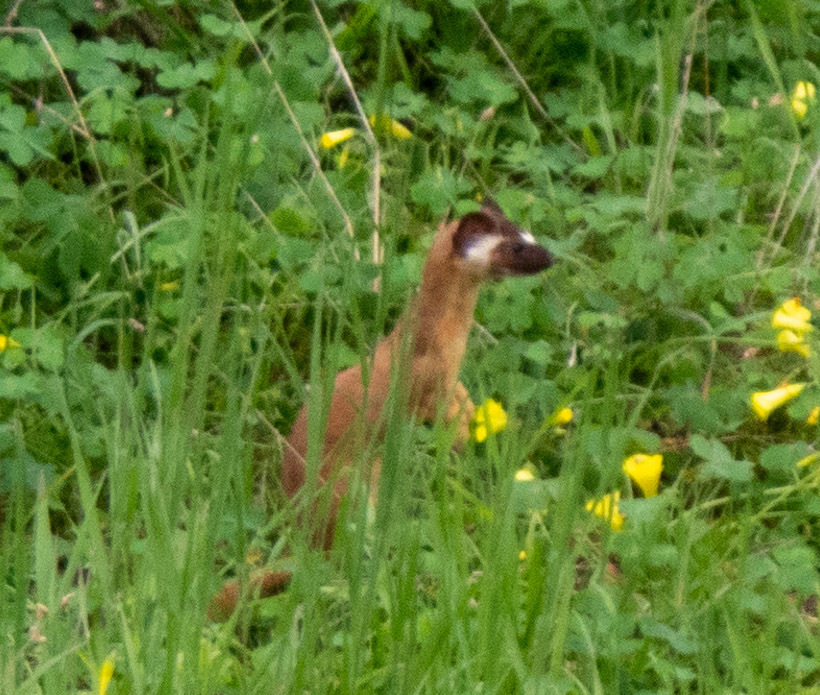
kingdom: Animalia
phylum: Chordata
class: Mammalia
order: Carnivora
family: Mustelidae
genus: Mustela
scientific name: Mustela
